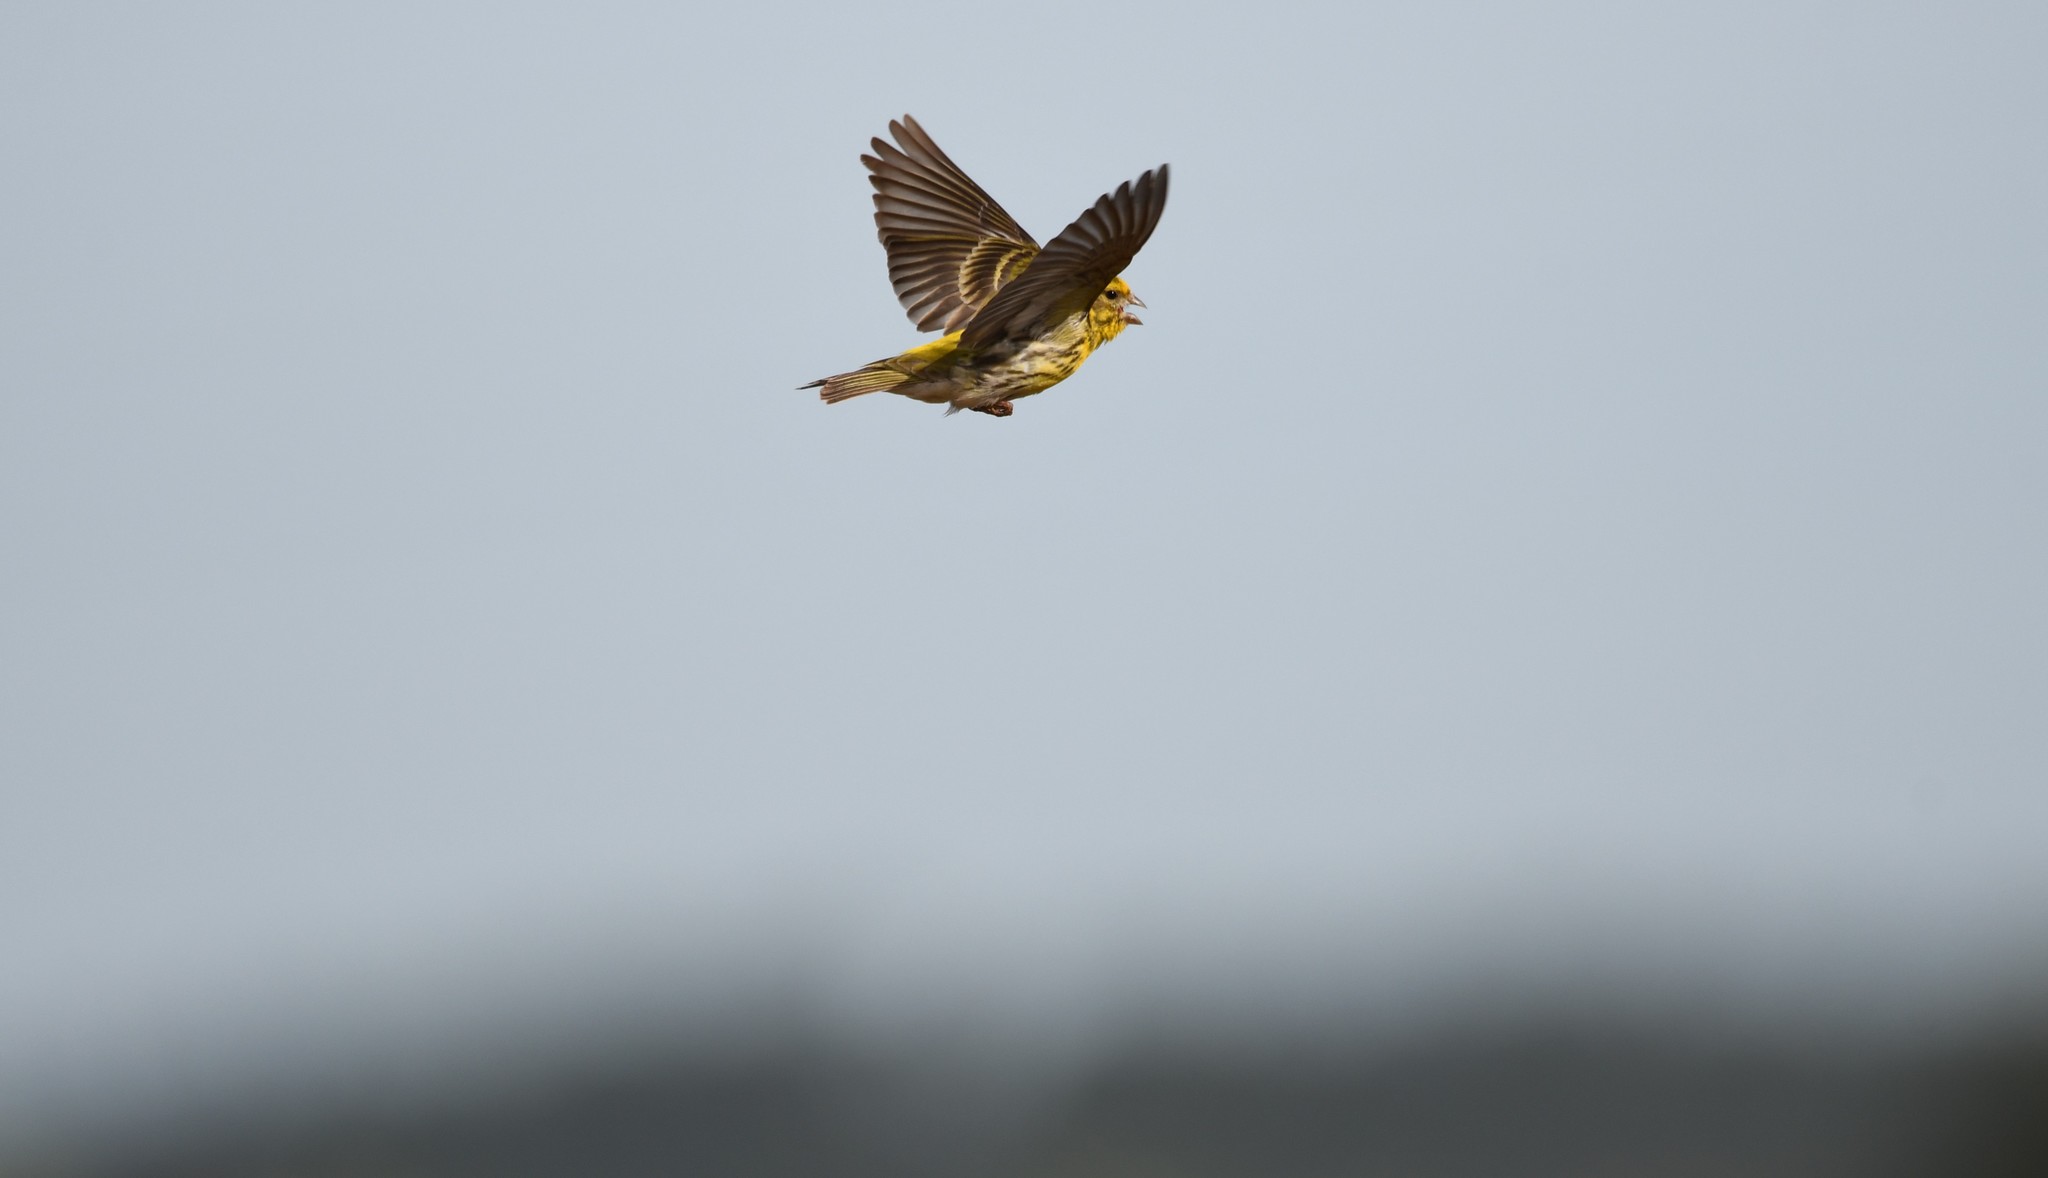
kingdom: Animalia
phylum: Chordata
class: Aves
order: Passeriformes
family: Fringillidae
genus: Serinus
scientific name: Serinus serinus
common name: European serin
